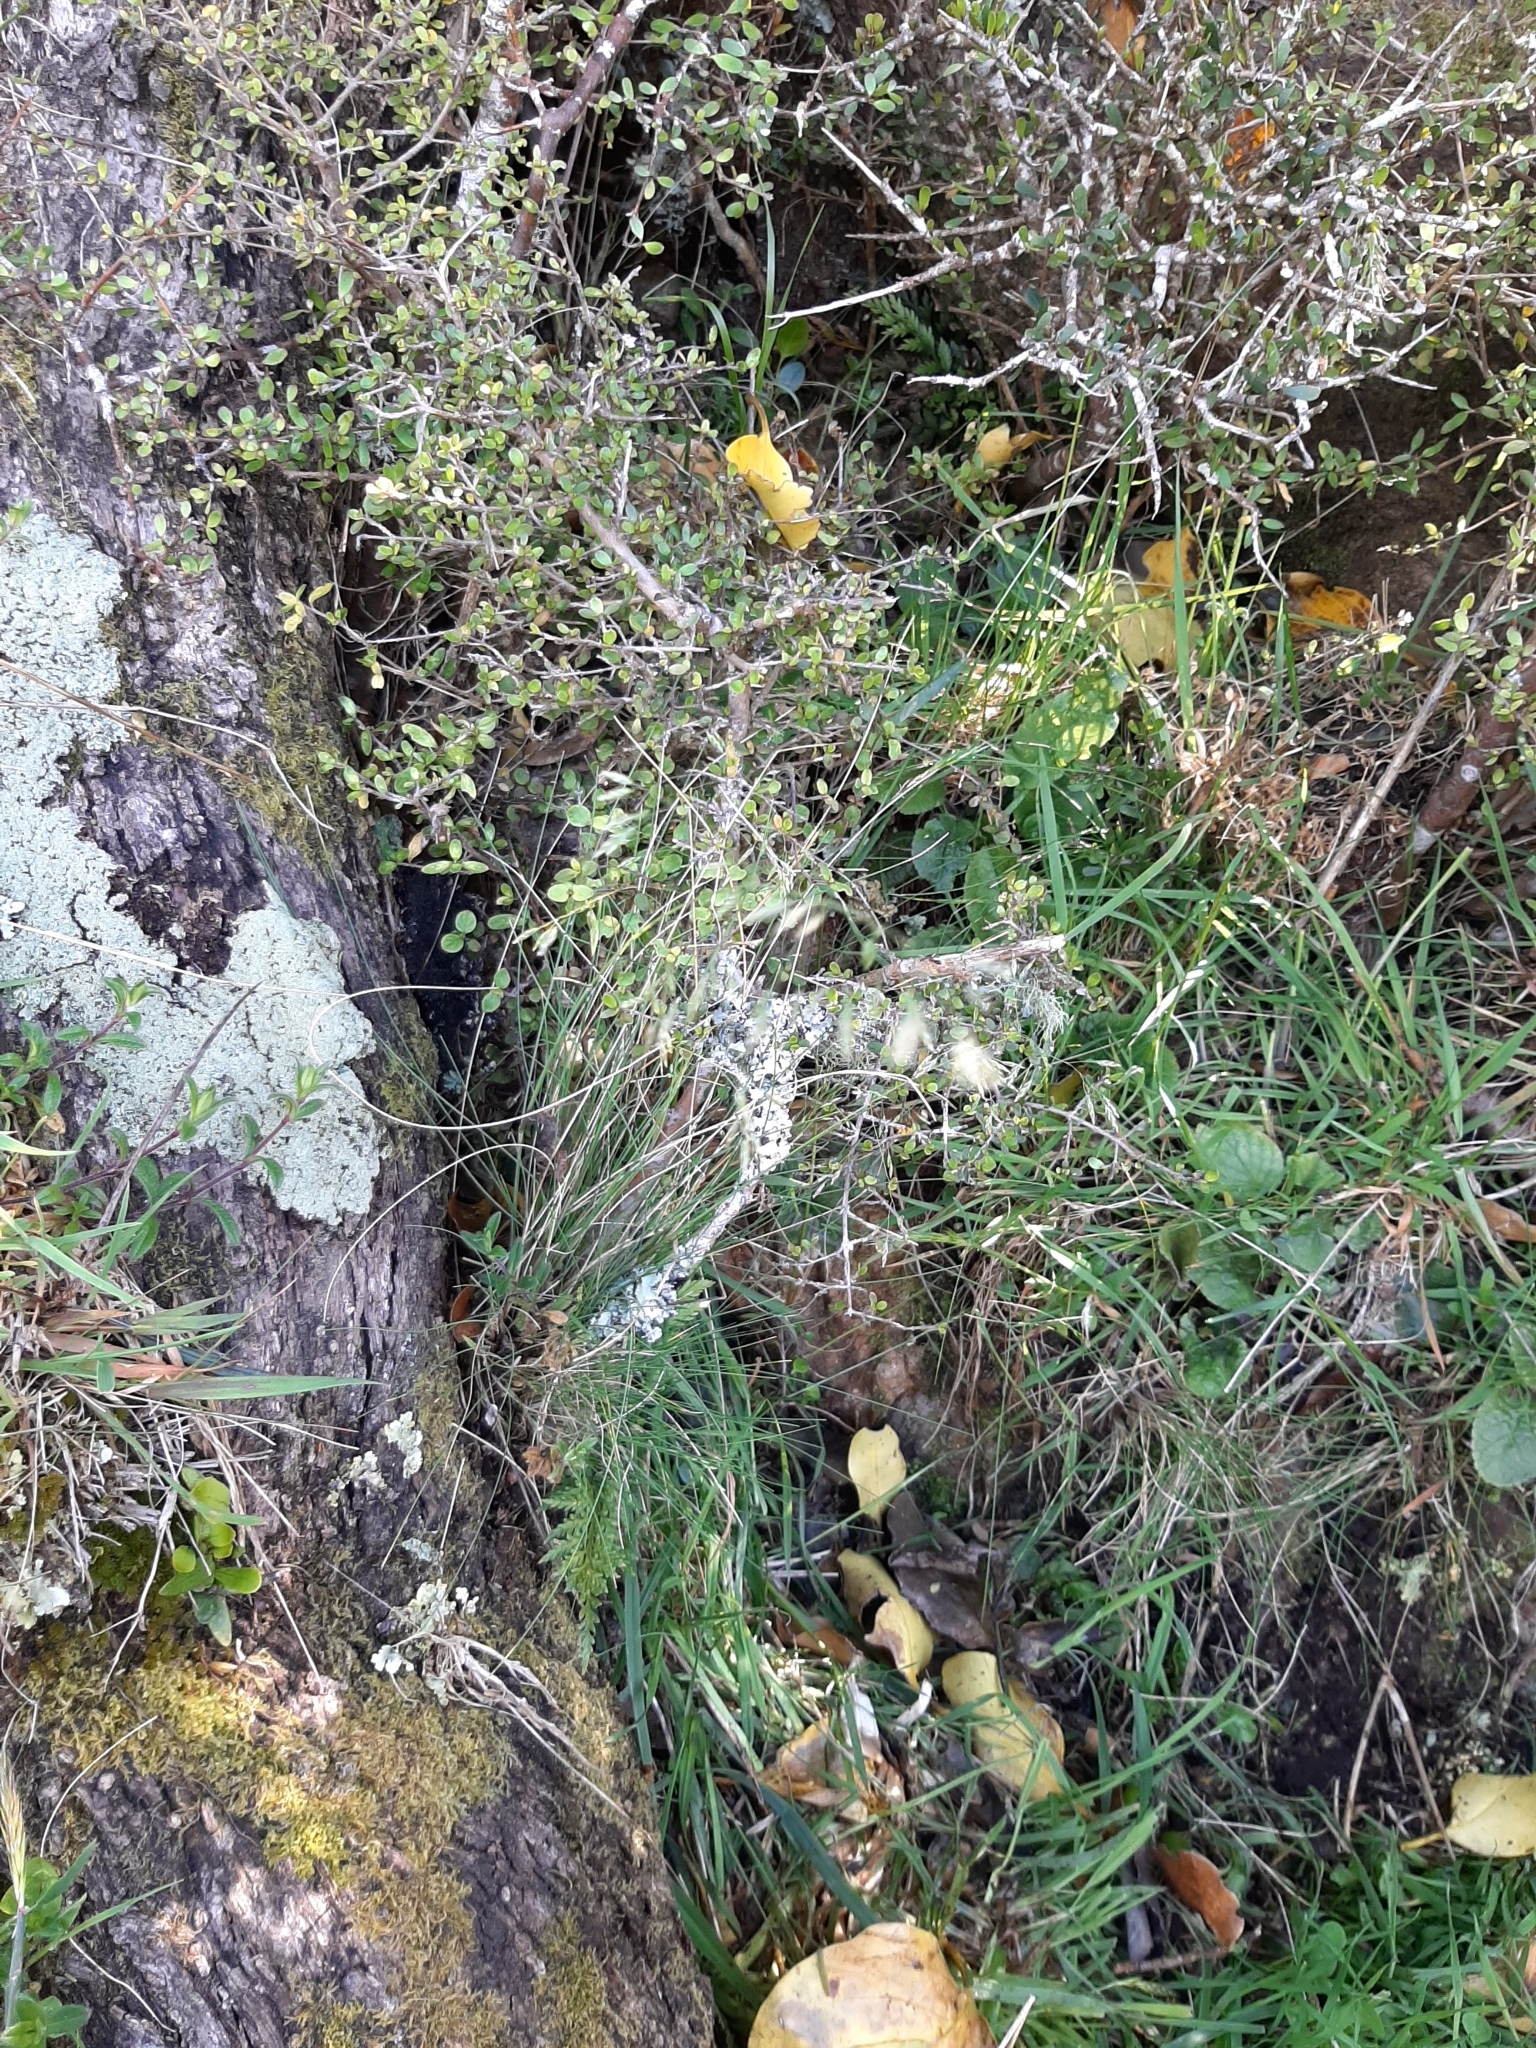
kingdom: Plantae
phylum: Tracheophyta
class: Liliopsida
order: Poales
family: Poaceae
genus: Poa
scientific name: Poa colensoi
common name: Blue tussock
